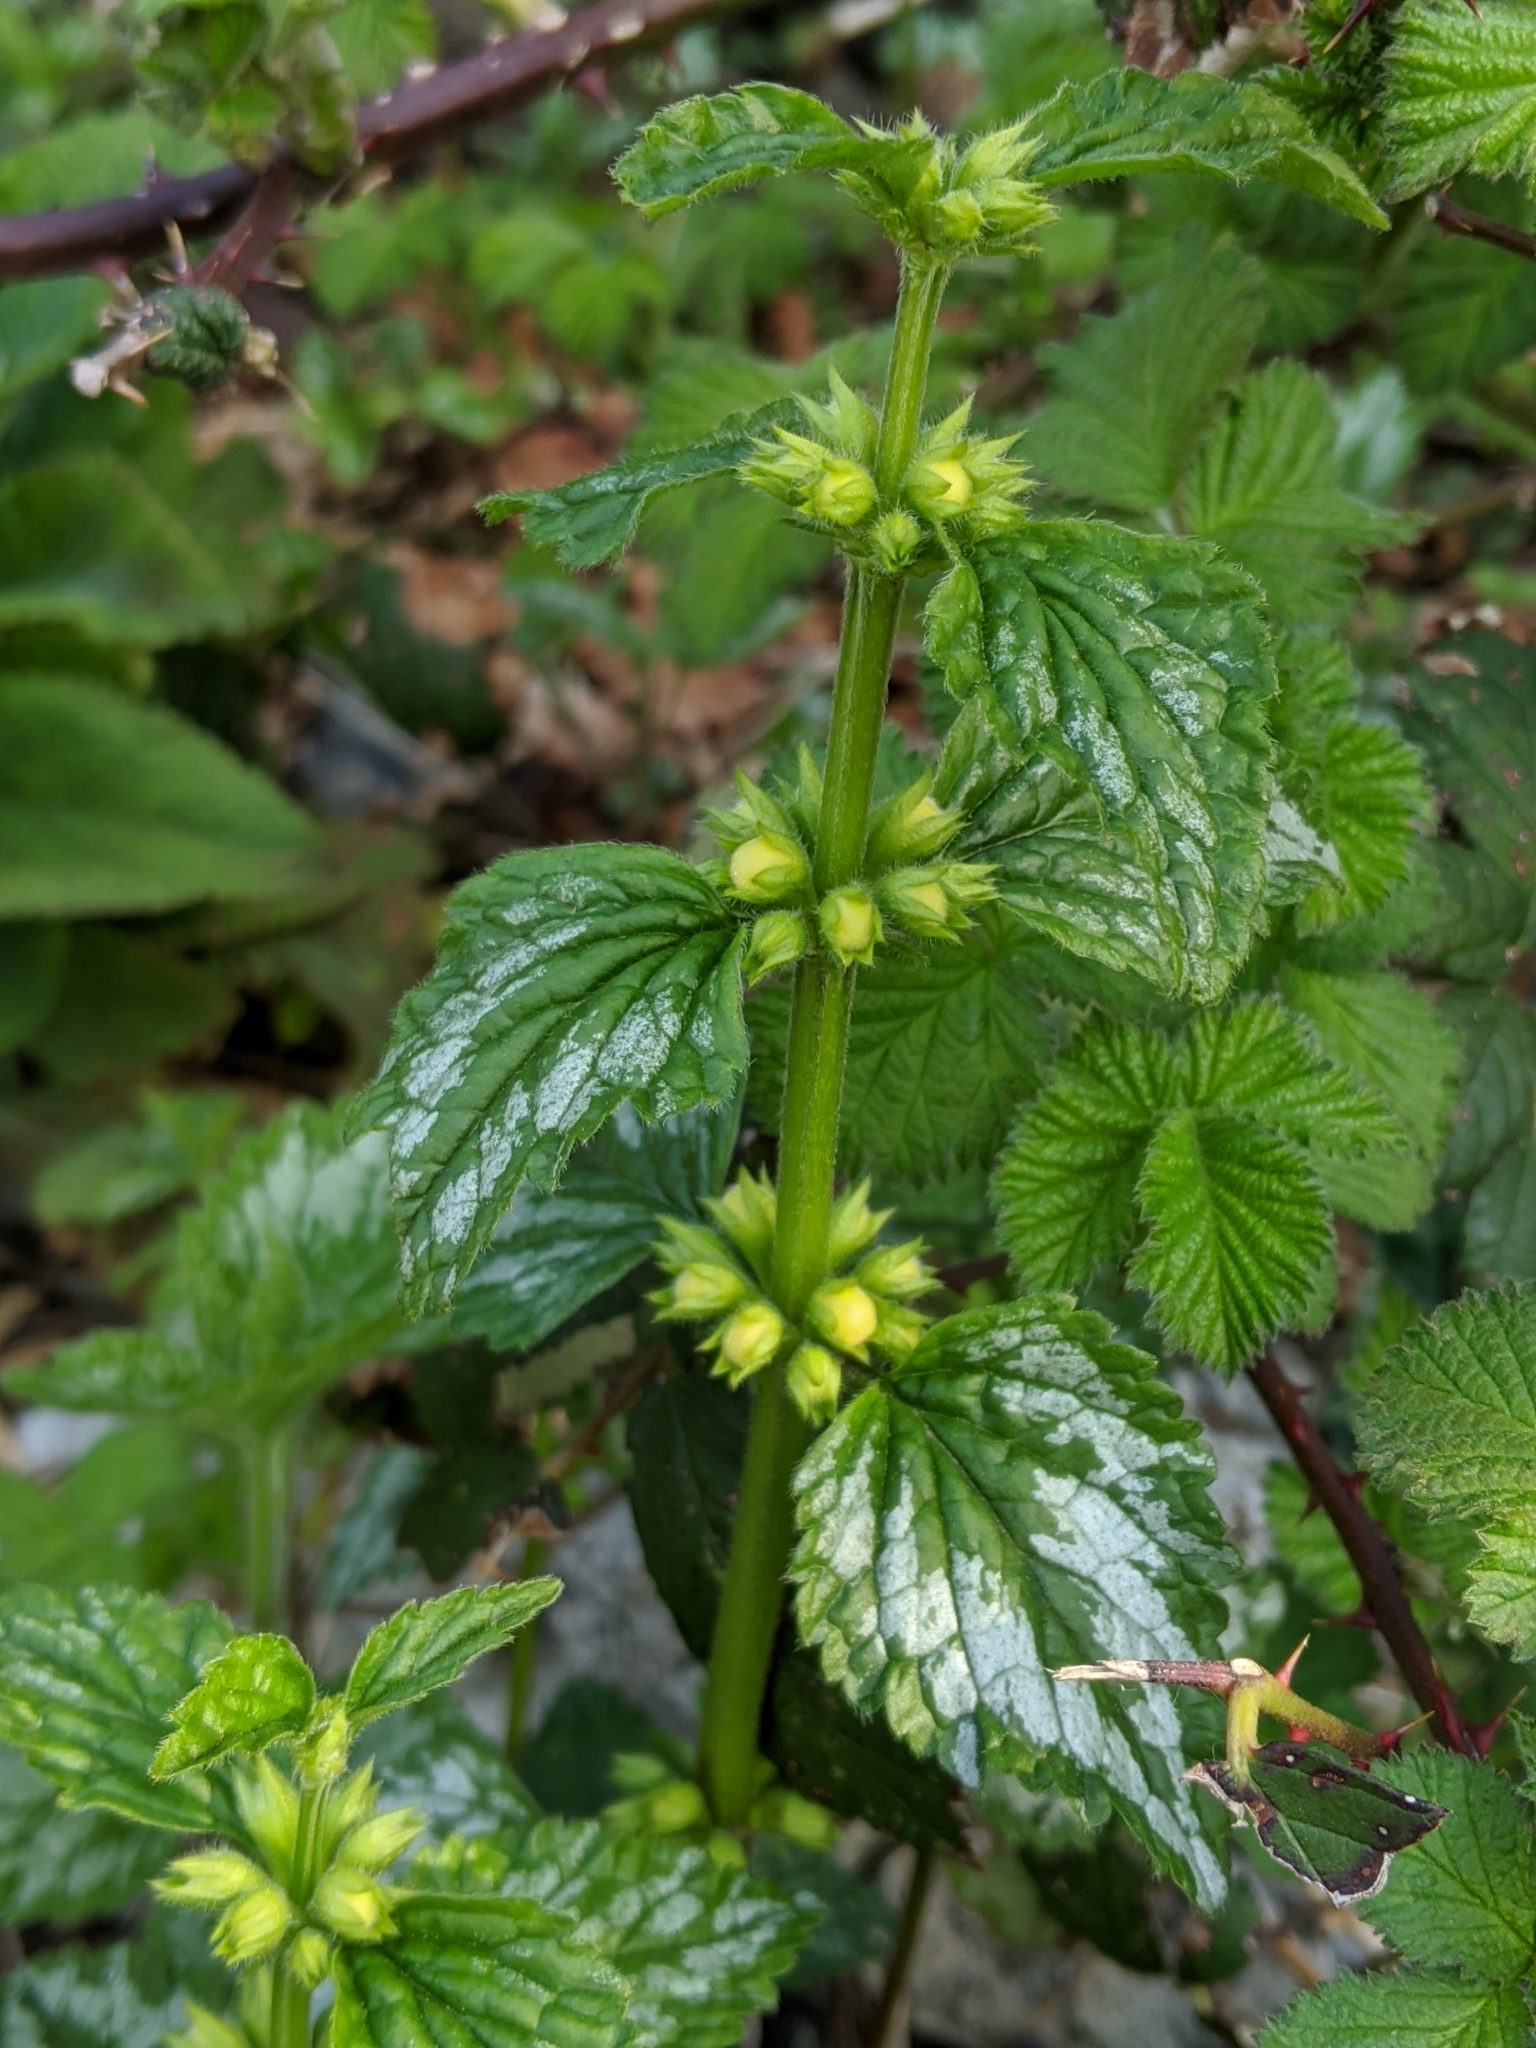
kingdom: Plantae
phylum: Tracheophyta
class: Magnoliopsida
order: Lamiales
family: Lamiaceae
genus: Lamium
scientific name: Lamium galeobdolon
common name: Yellow archangel
